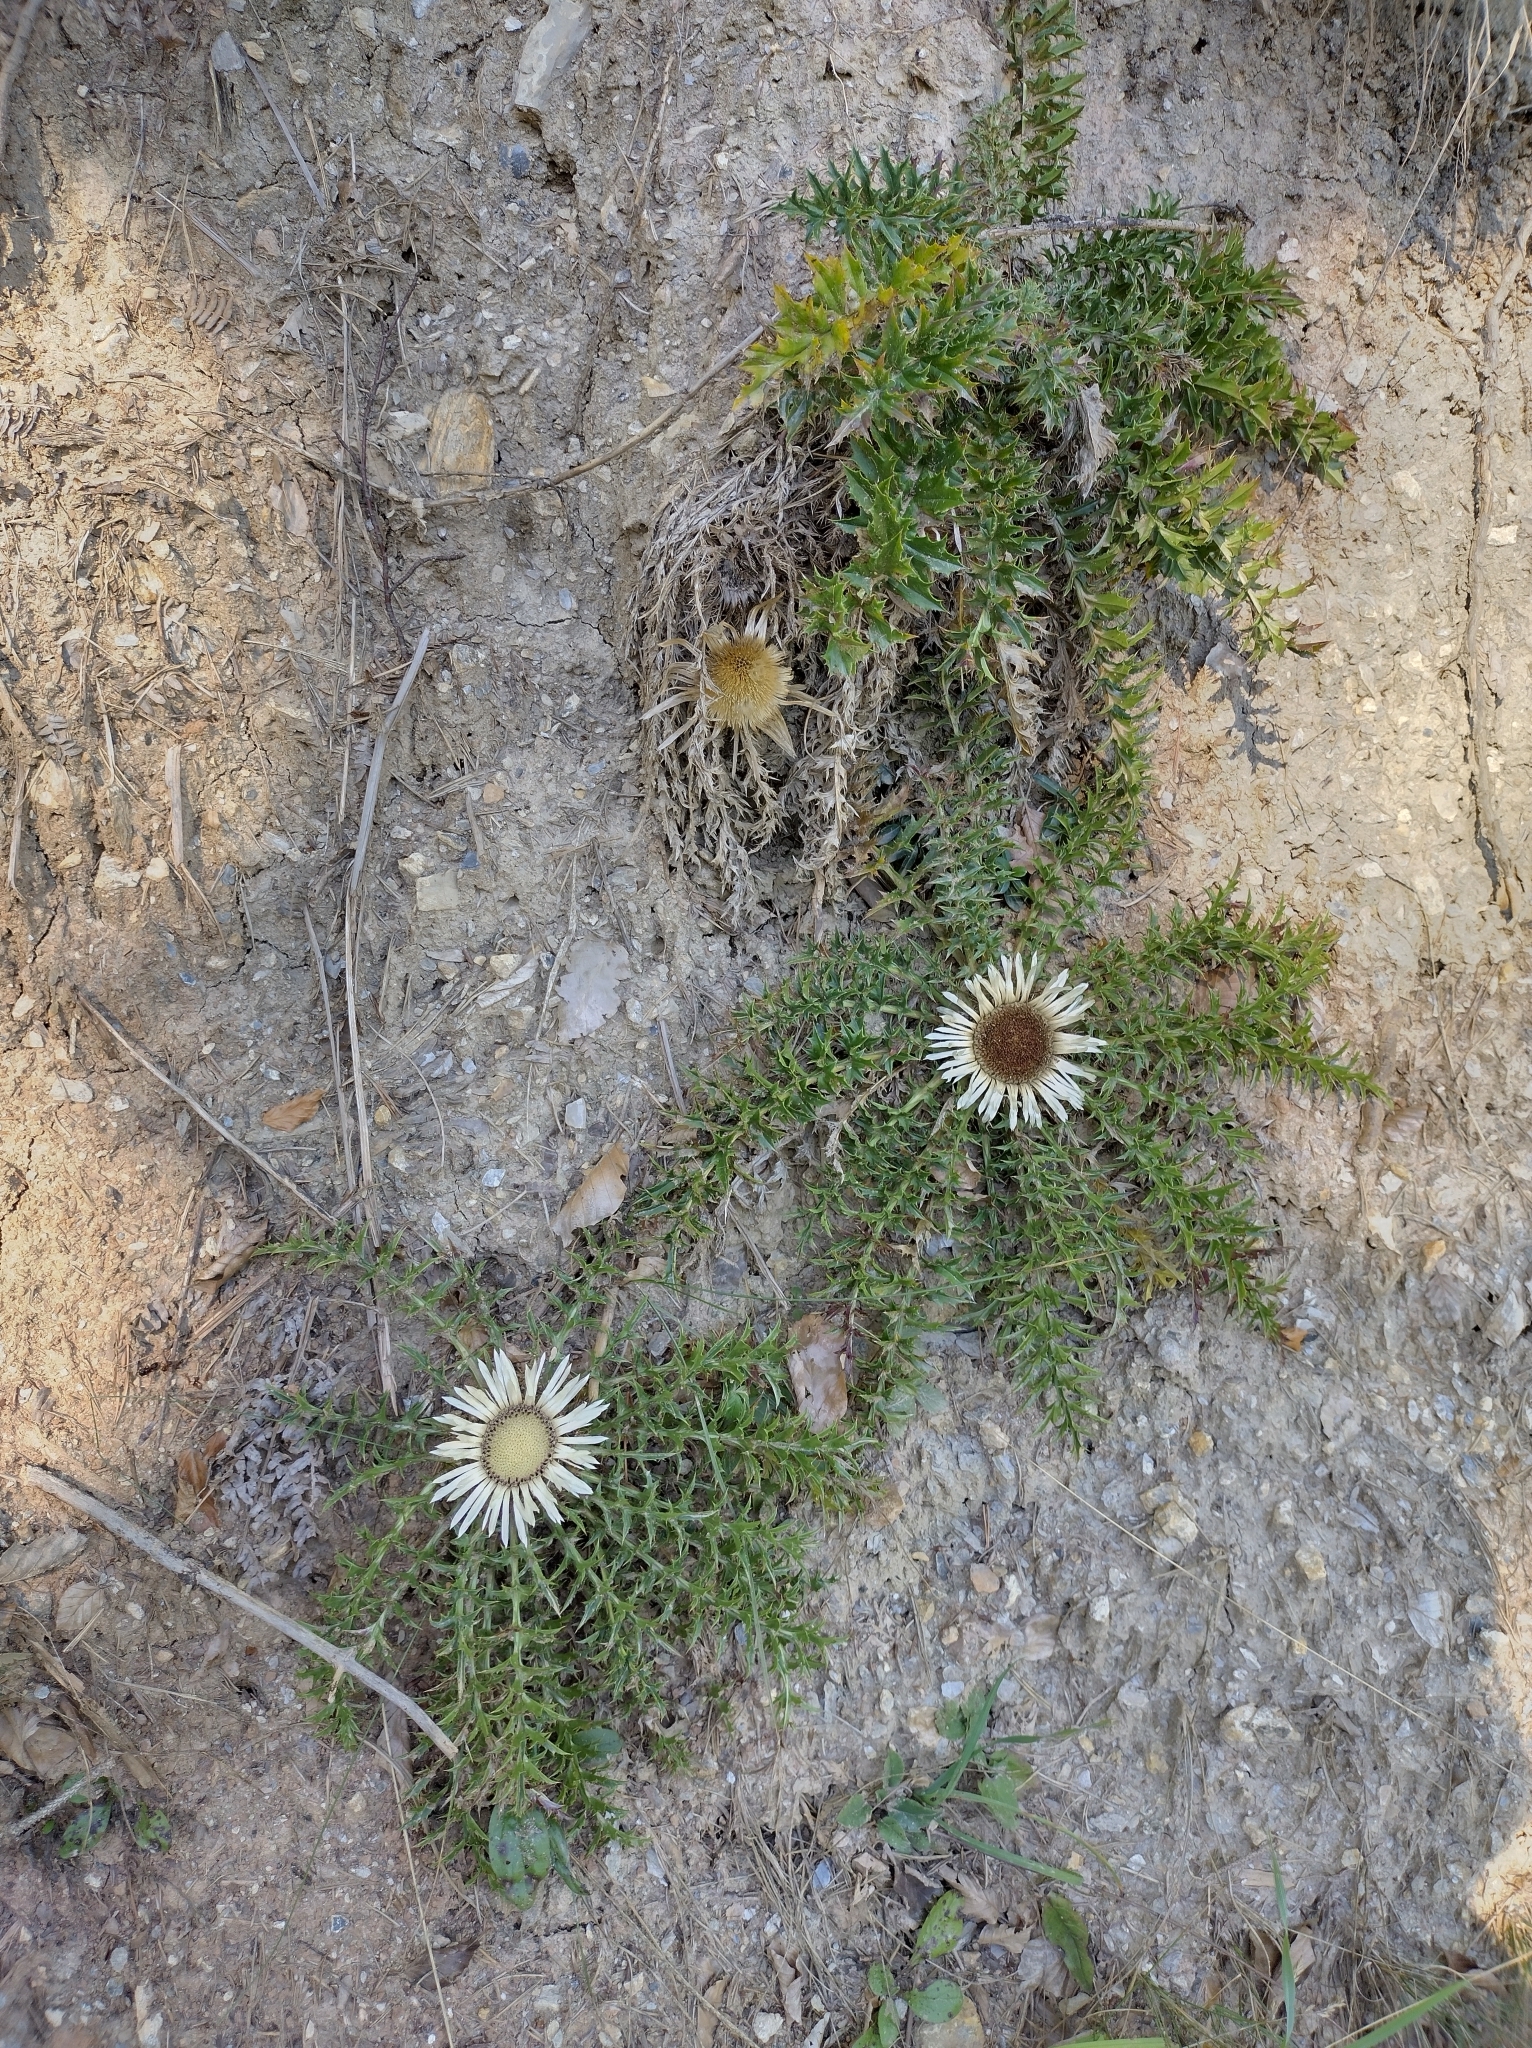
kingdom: Plantae
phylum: Tracheophyta
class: Magnoliopsida
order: Asterales
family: Asteraceae
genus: Carlina
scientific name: Carlina acaulis
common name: Stemless carline thistle
